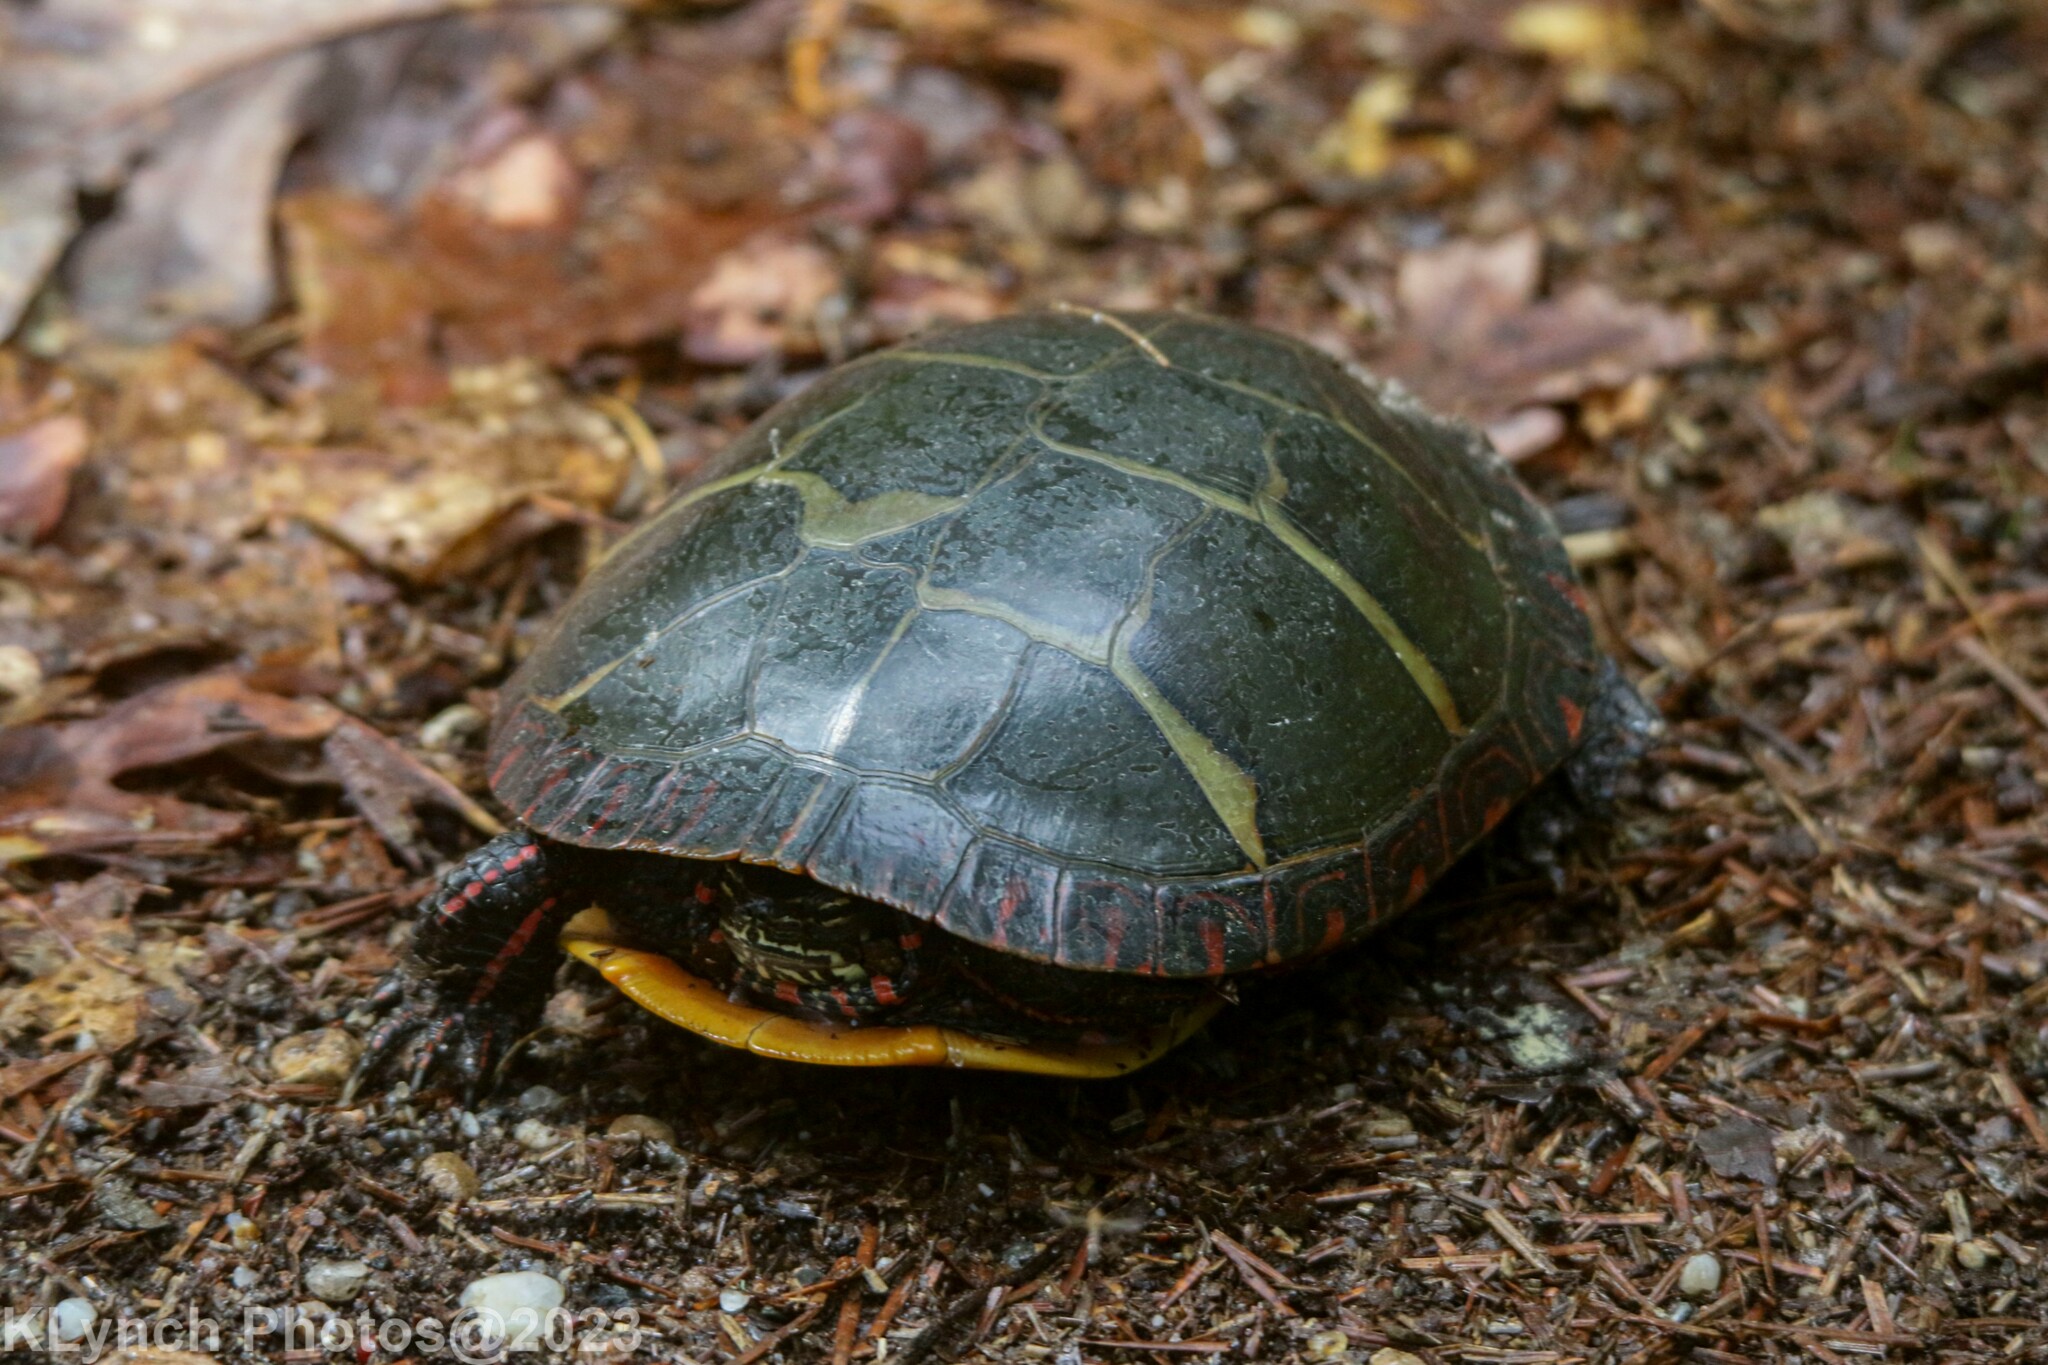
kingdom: Animalia
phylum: Chordata
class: Testudines
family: Emydidae
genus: Chrysemys
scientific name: Chrysemys picta
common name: Painted turtle
